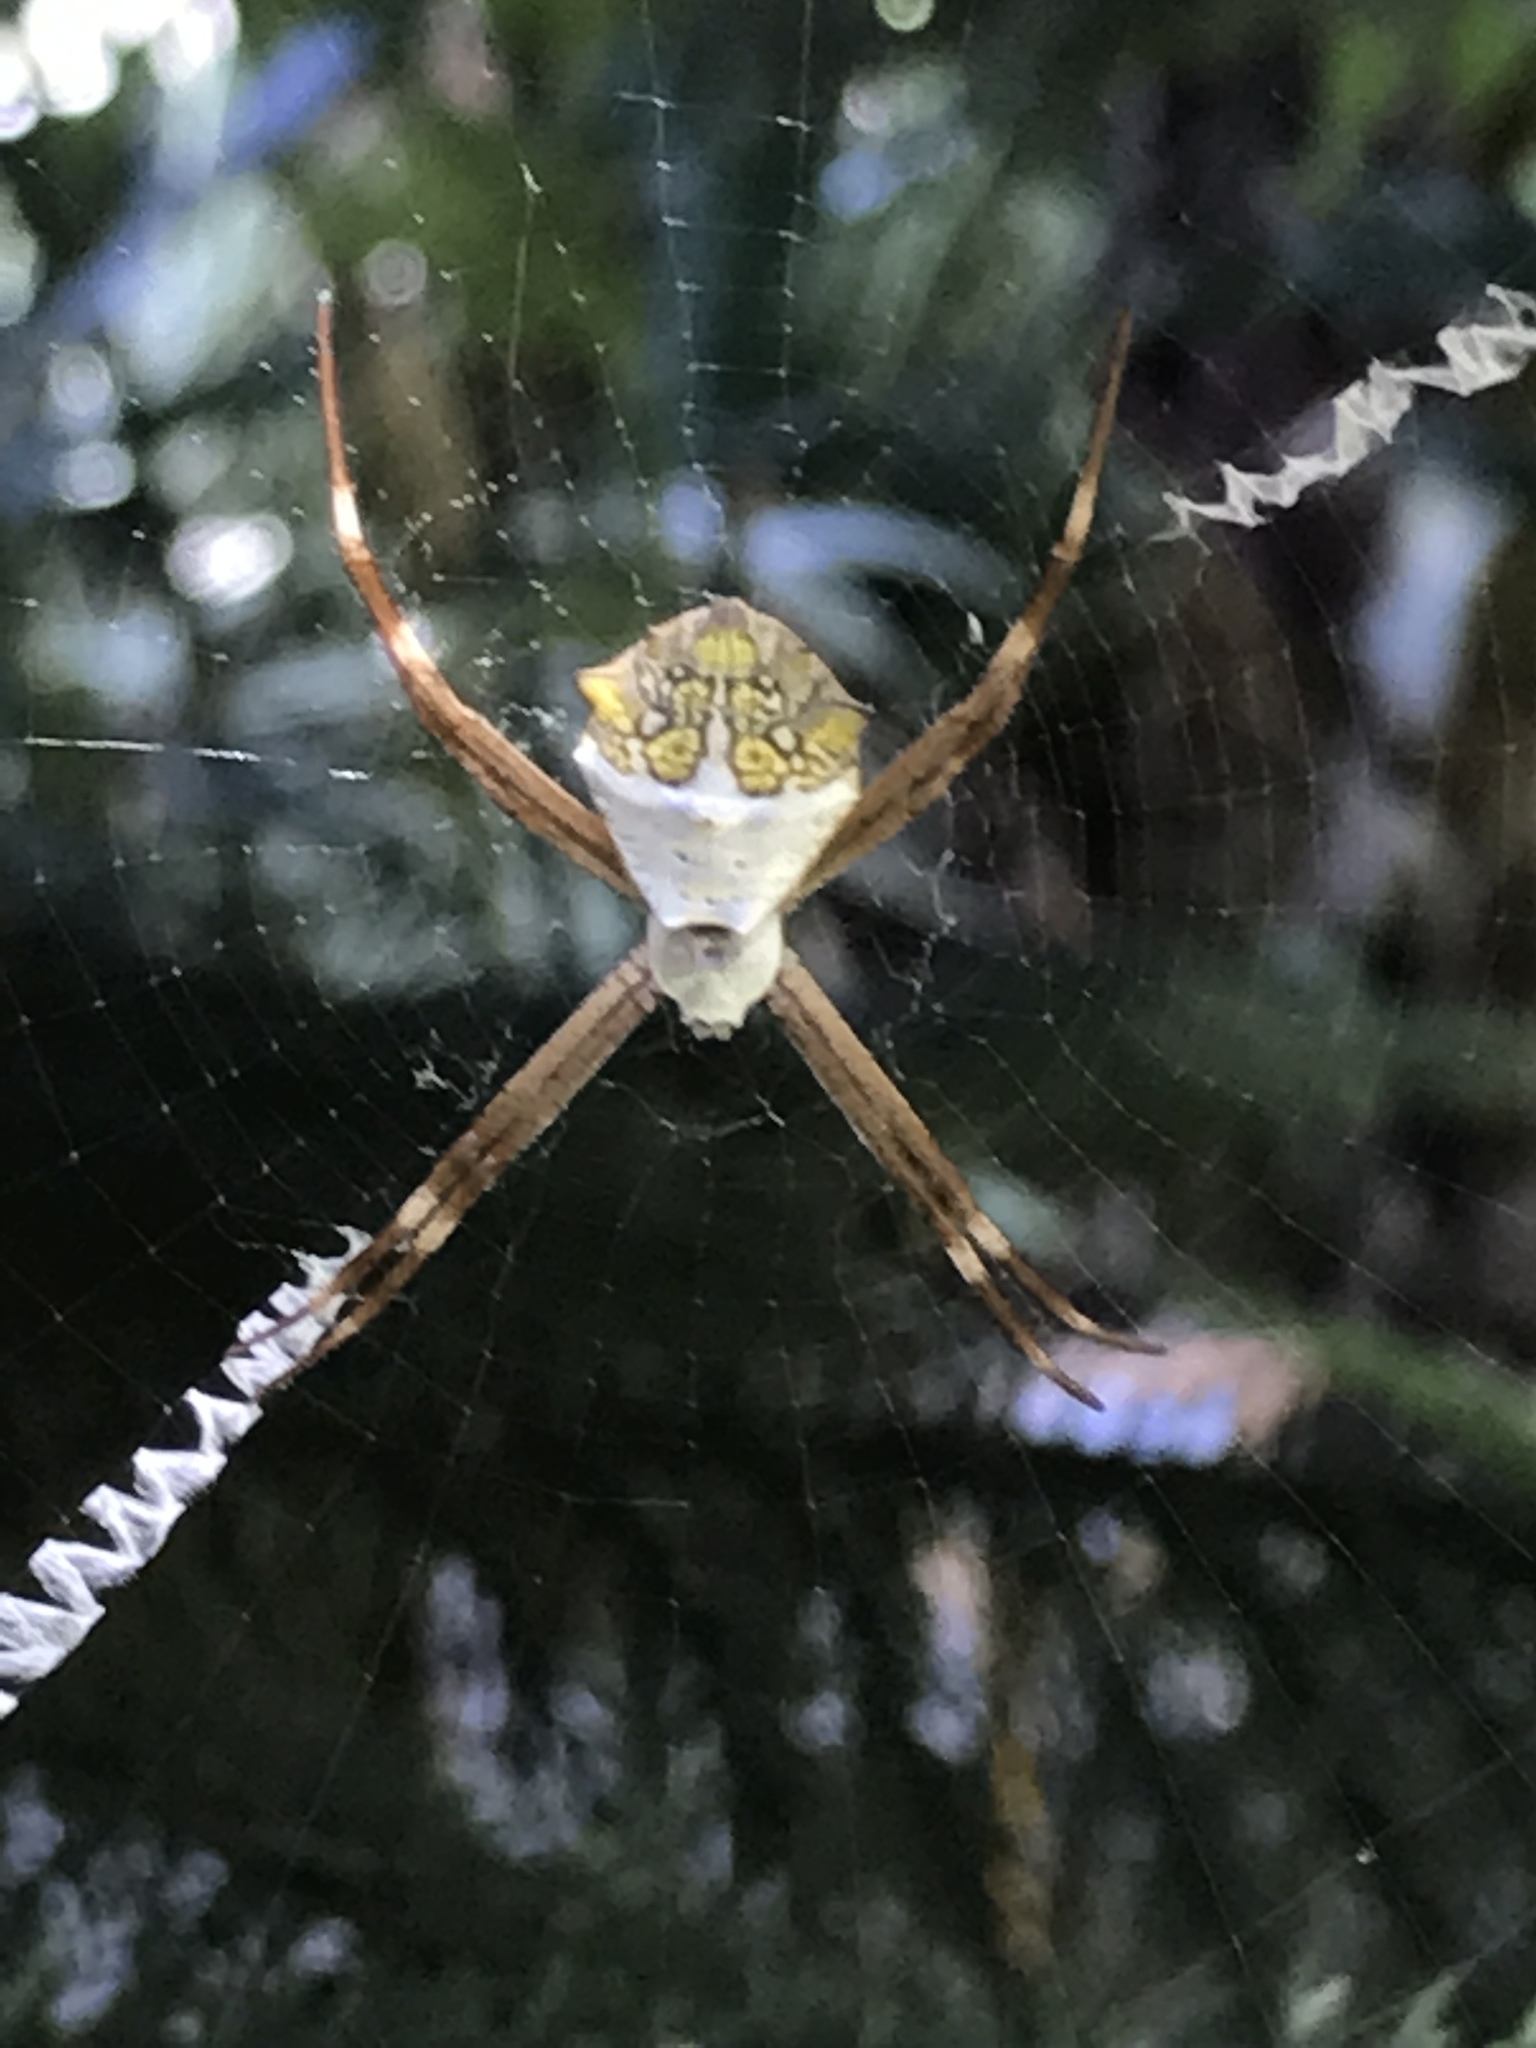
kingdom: Animalia
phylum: Arthropoda
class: Arachnida
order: Araneae
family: Araneidae
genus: Argiope
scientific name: Argiope argentata
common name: Orb weavers
